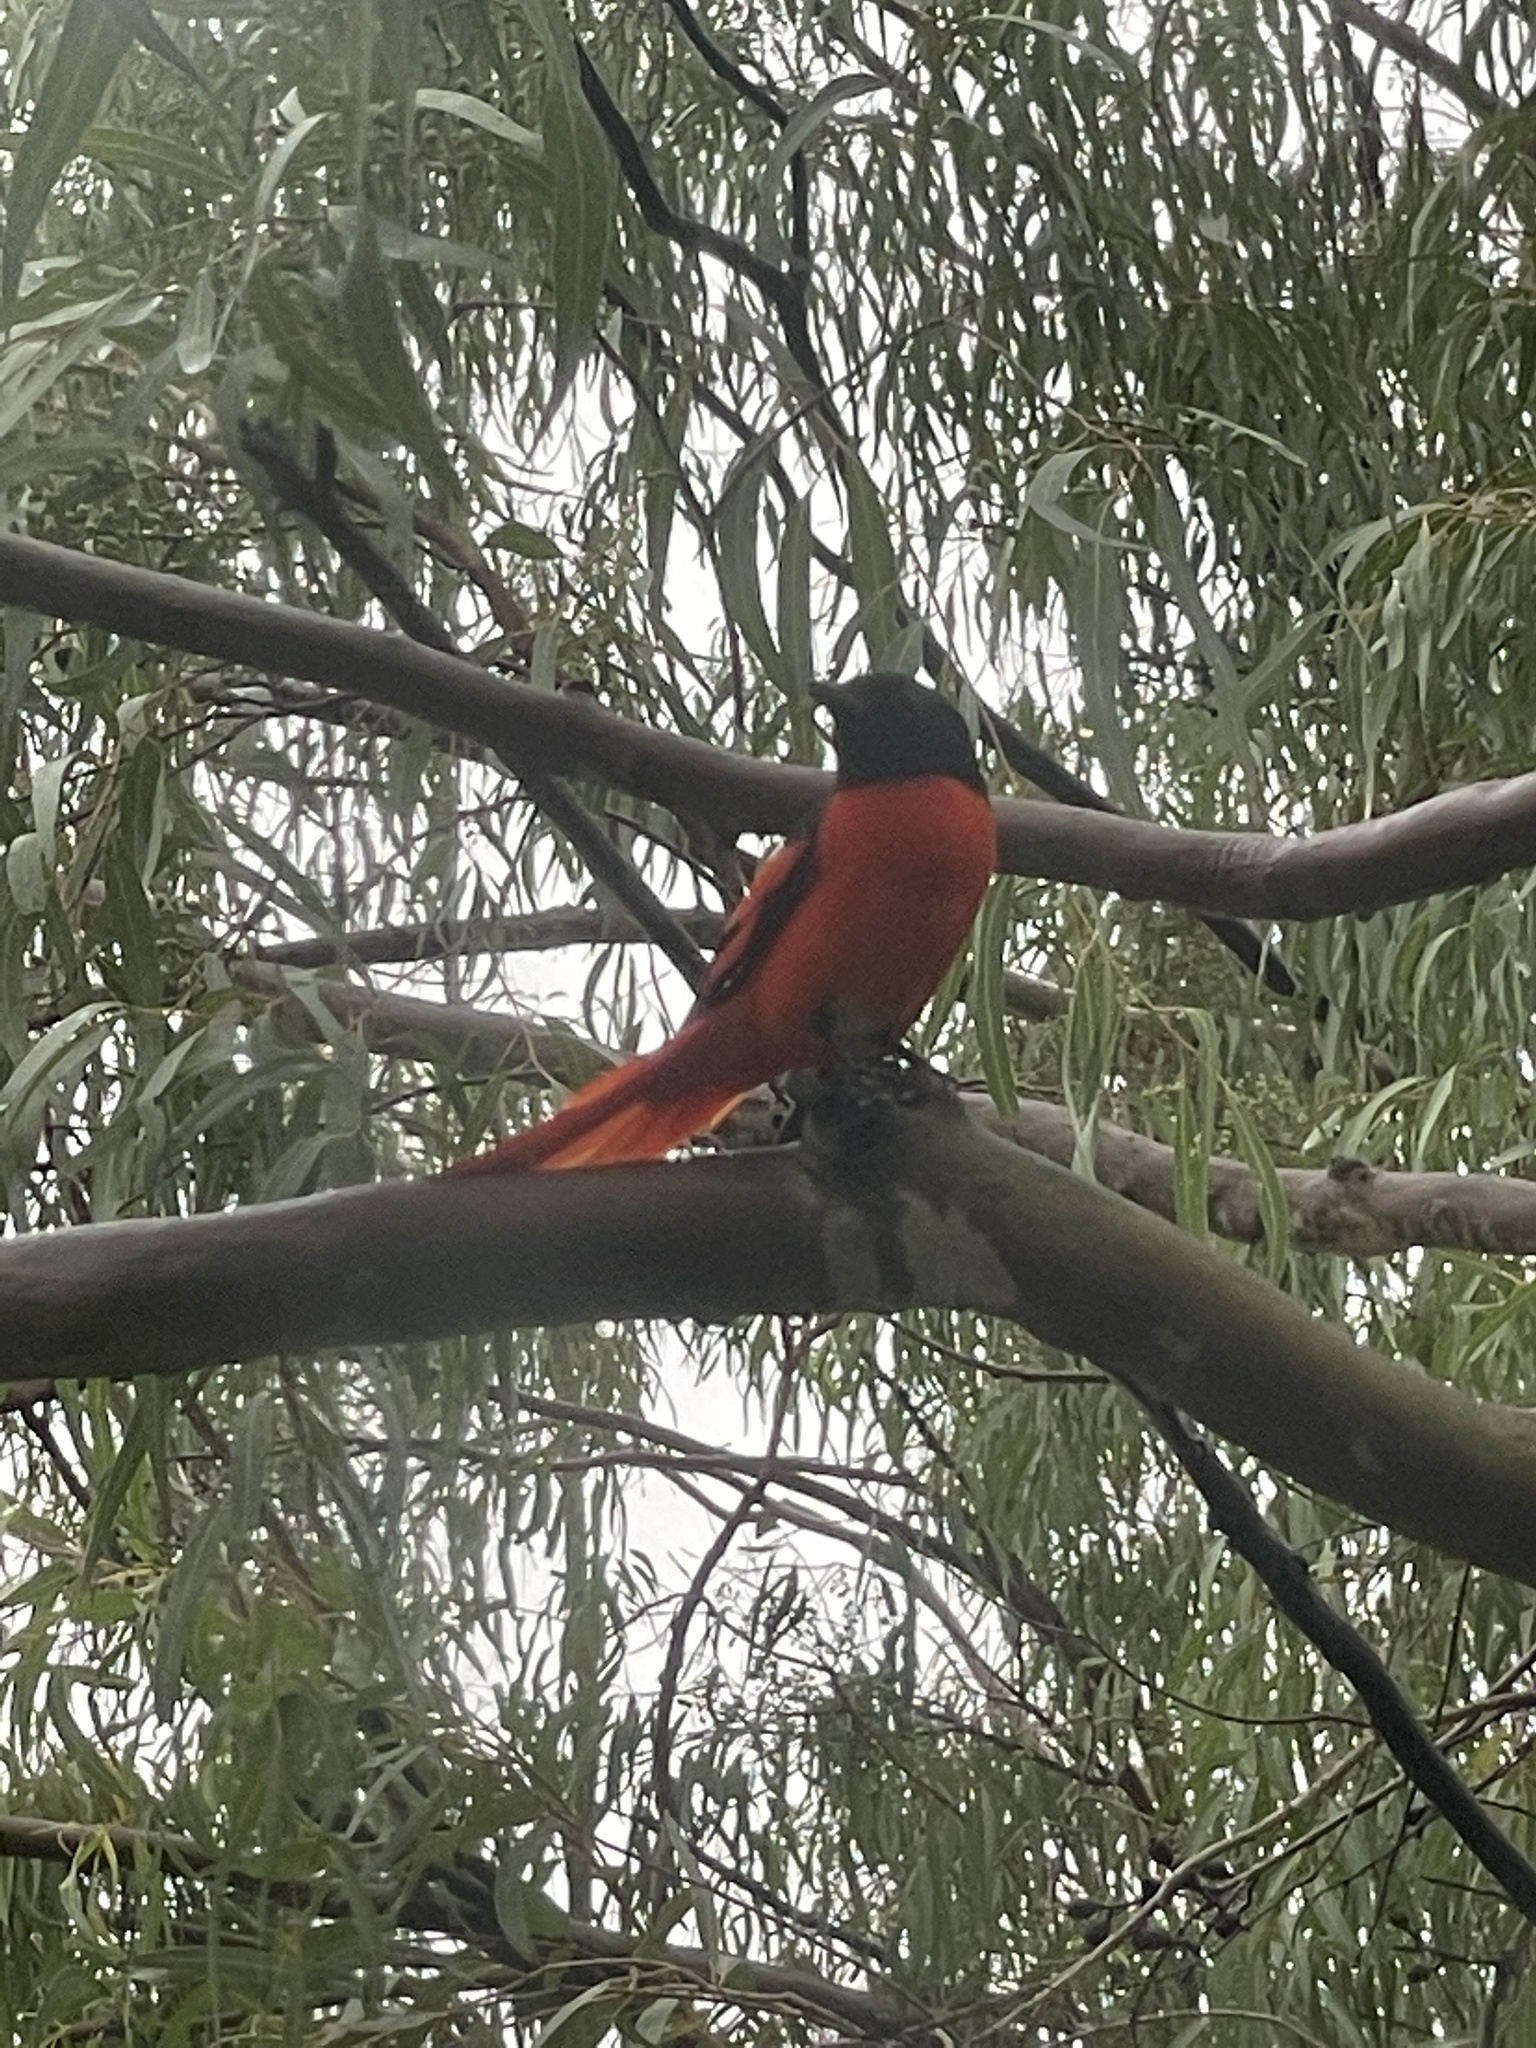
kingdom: Animalia
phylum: Chordata
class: Aves
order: Passeriformes
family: Campephagidae
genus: Pericrocotus
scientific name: Pericrocotus speciosus
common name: Scarlet minivet
